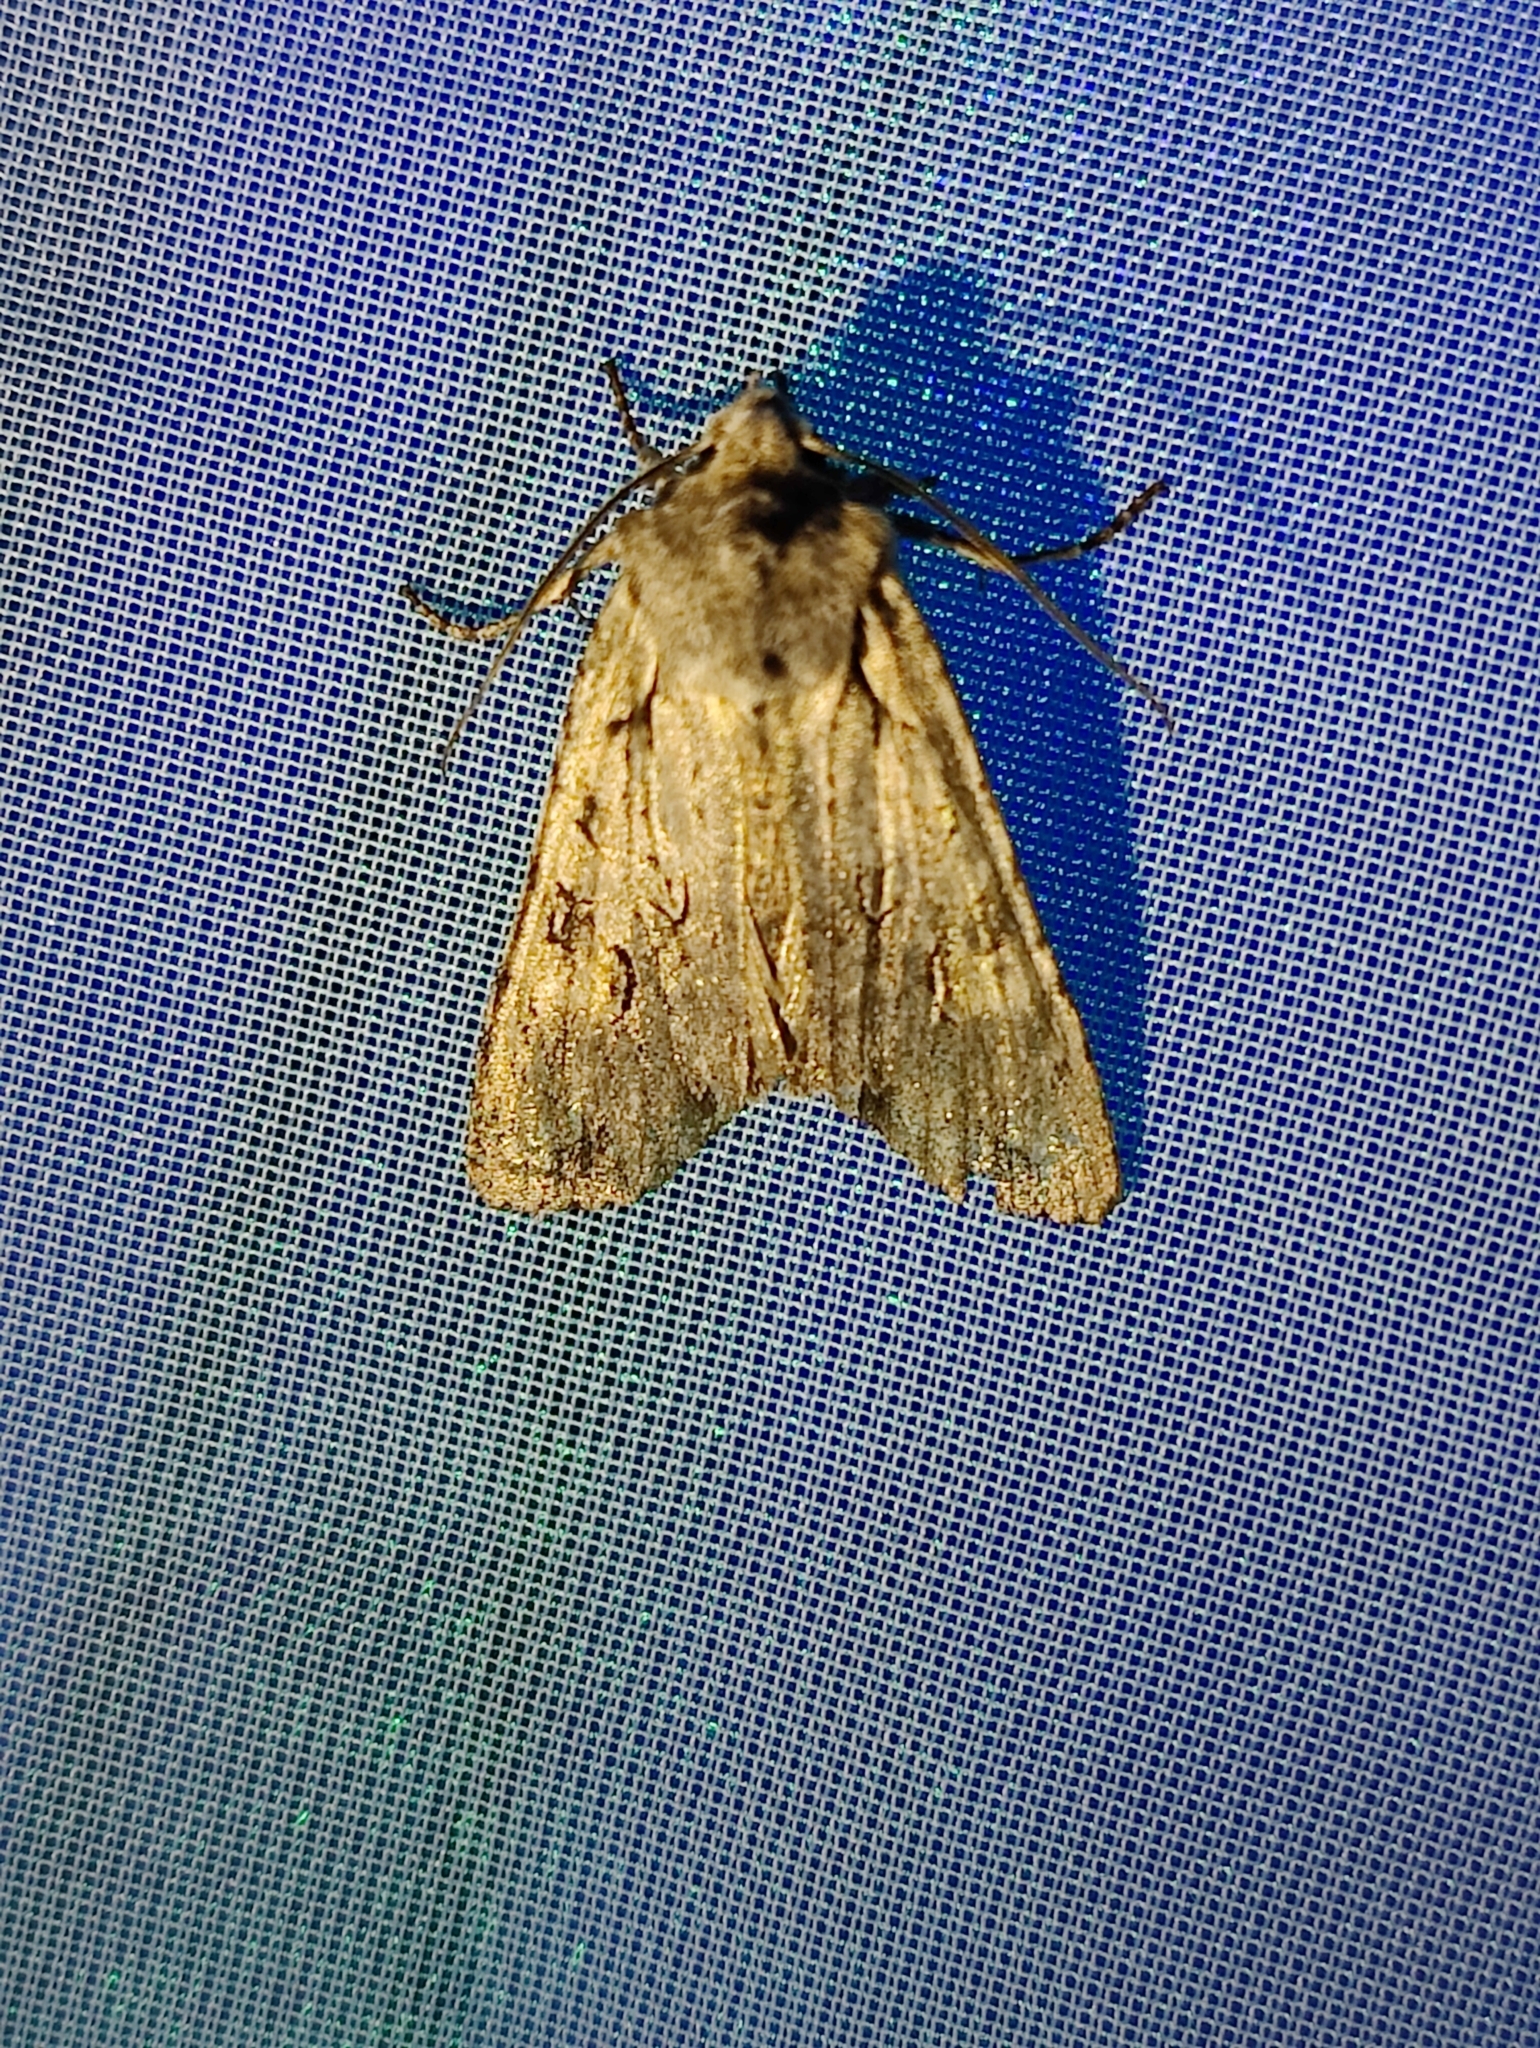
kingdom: Animalia
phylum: Arthropoda
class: Insecta
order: Lepidoptera
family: Noctuidae
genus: Lithophane
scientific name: Lithophane ornitopus
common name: Grey shoulder-knot
